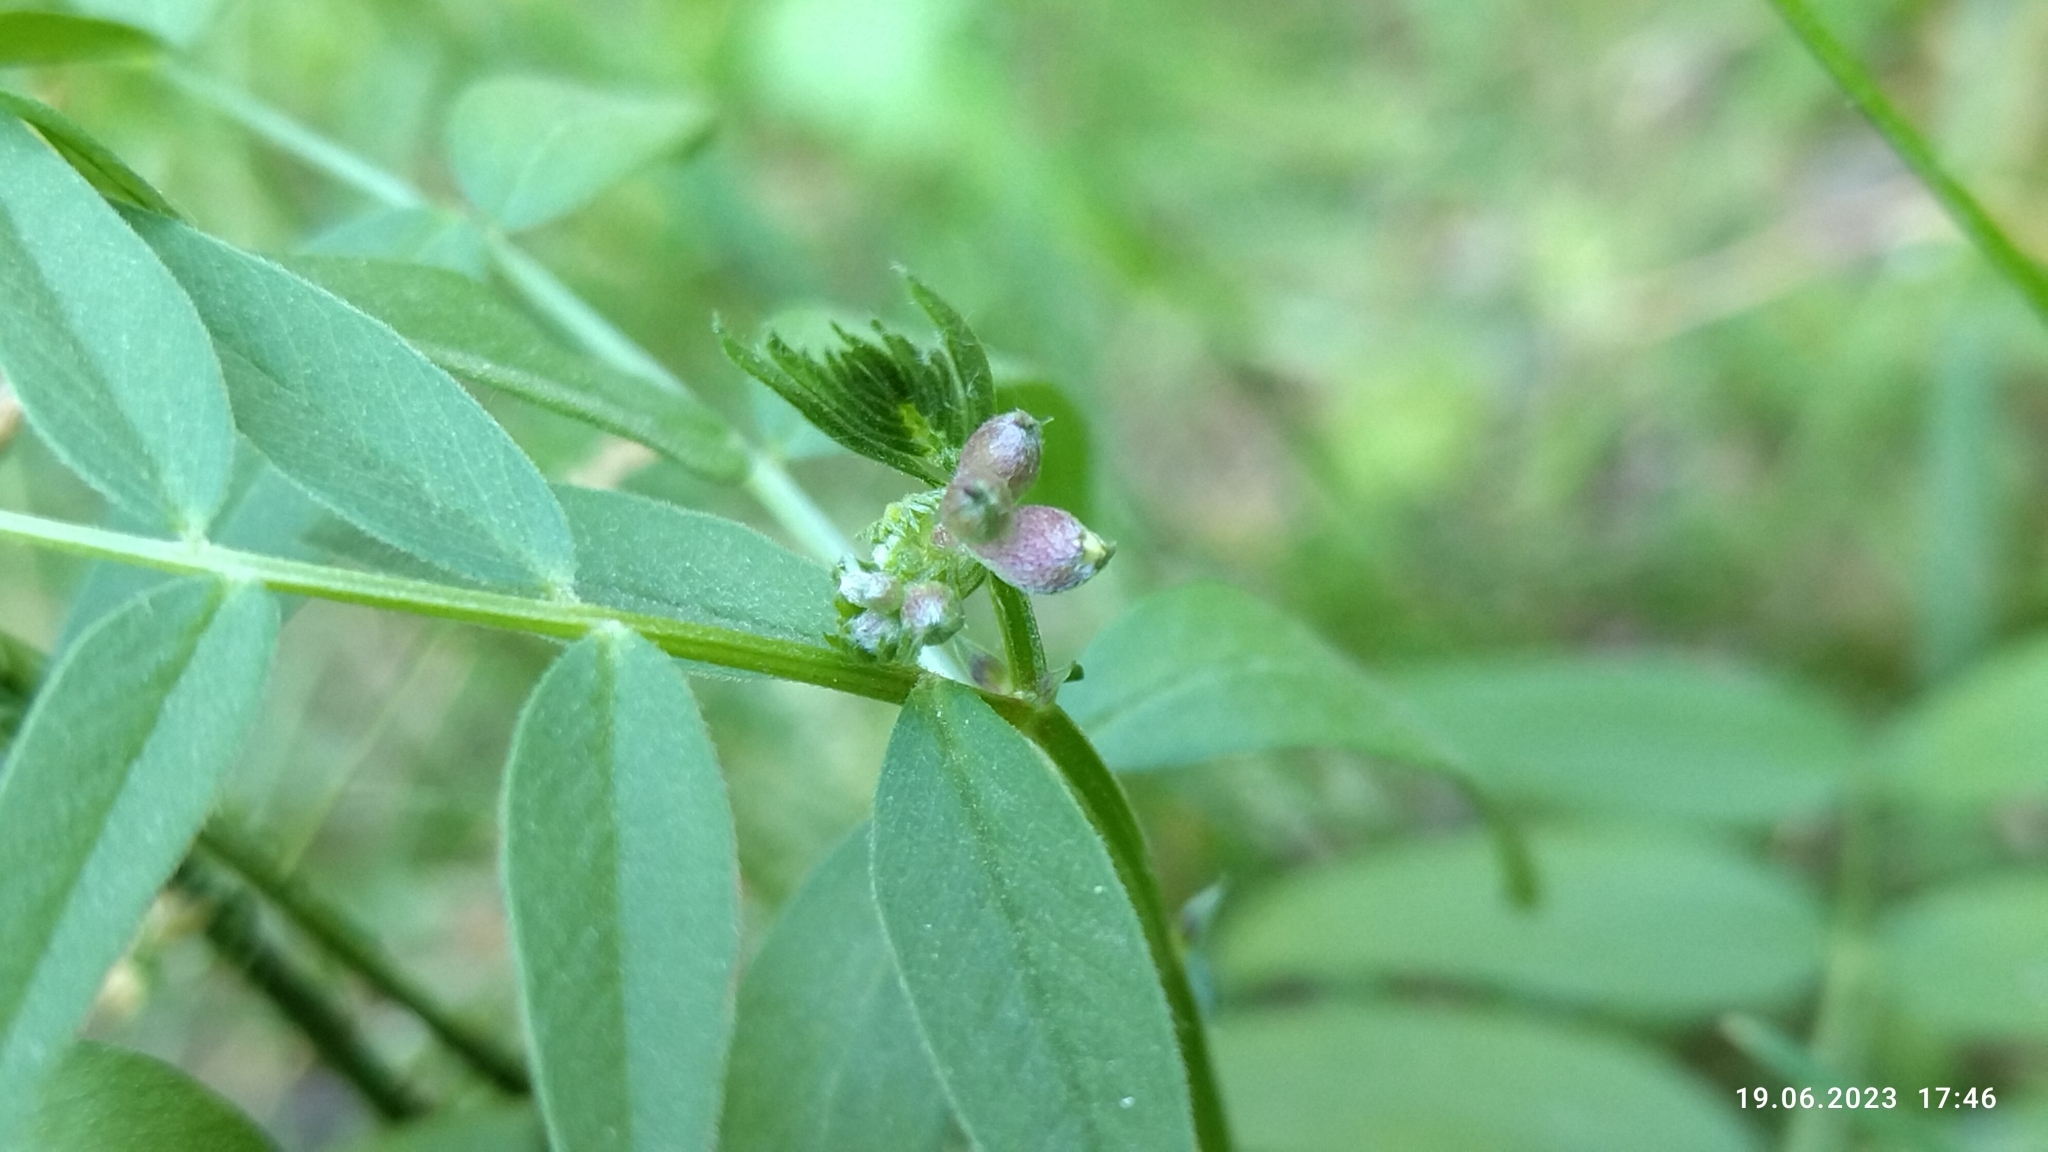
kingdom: Plantae
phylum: Tracheophyta
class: Magnoliopsida
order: Fabales
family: Fabaceae
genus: Vicia
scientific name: Vicia sepium
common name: Bush vetch
